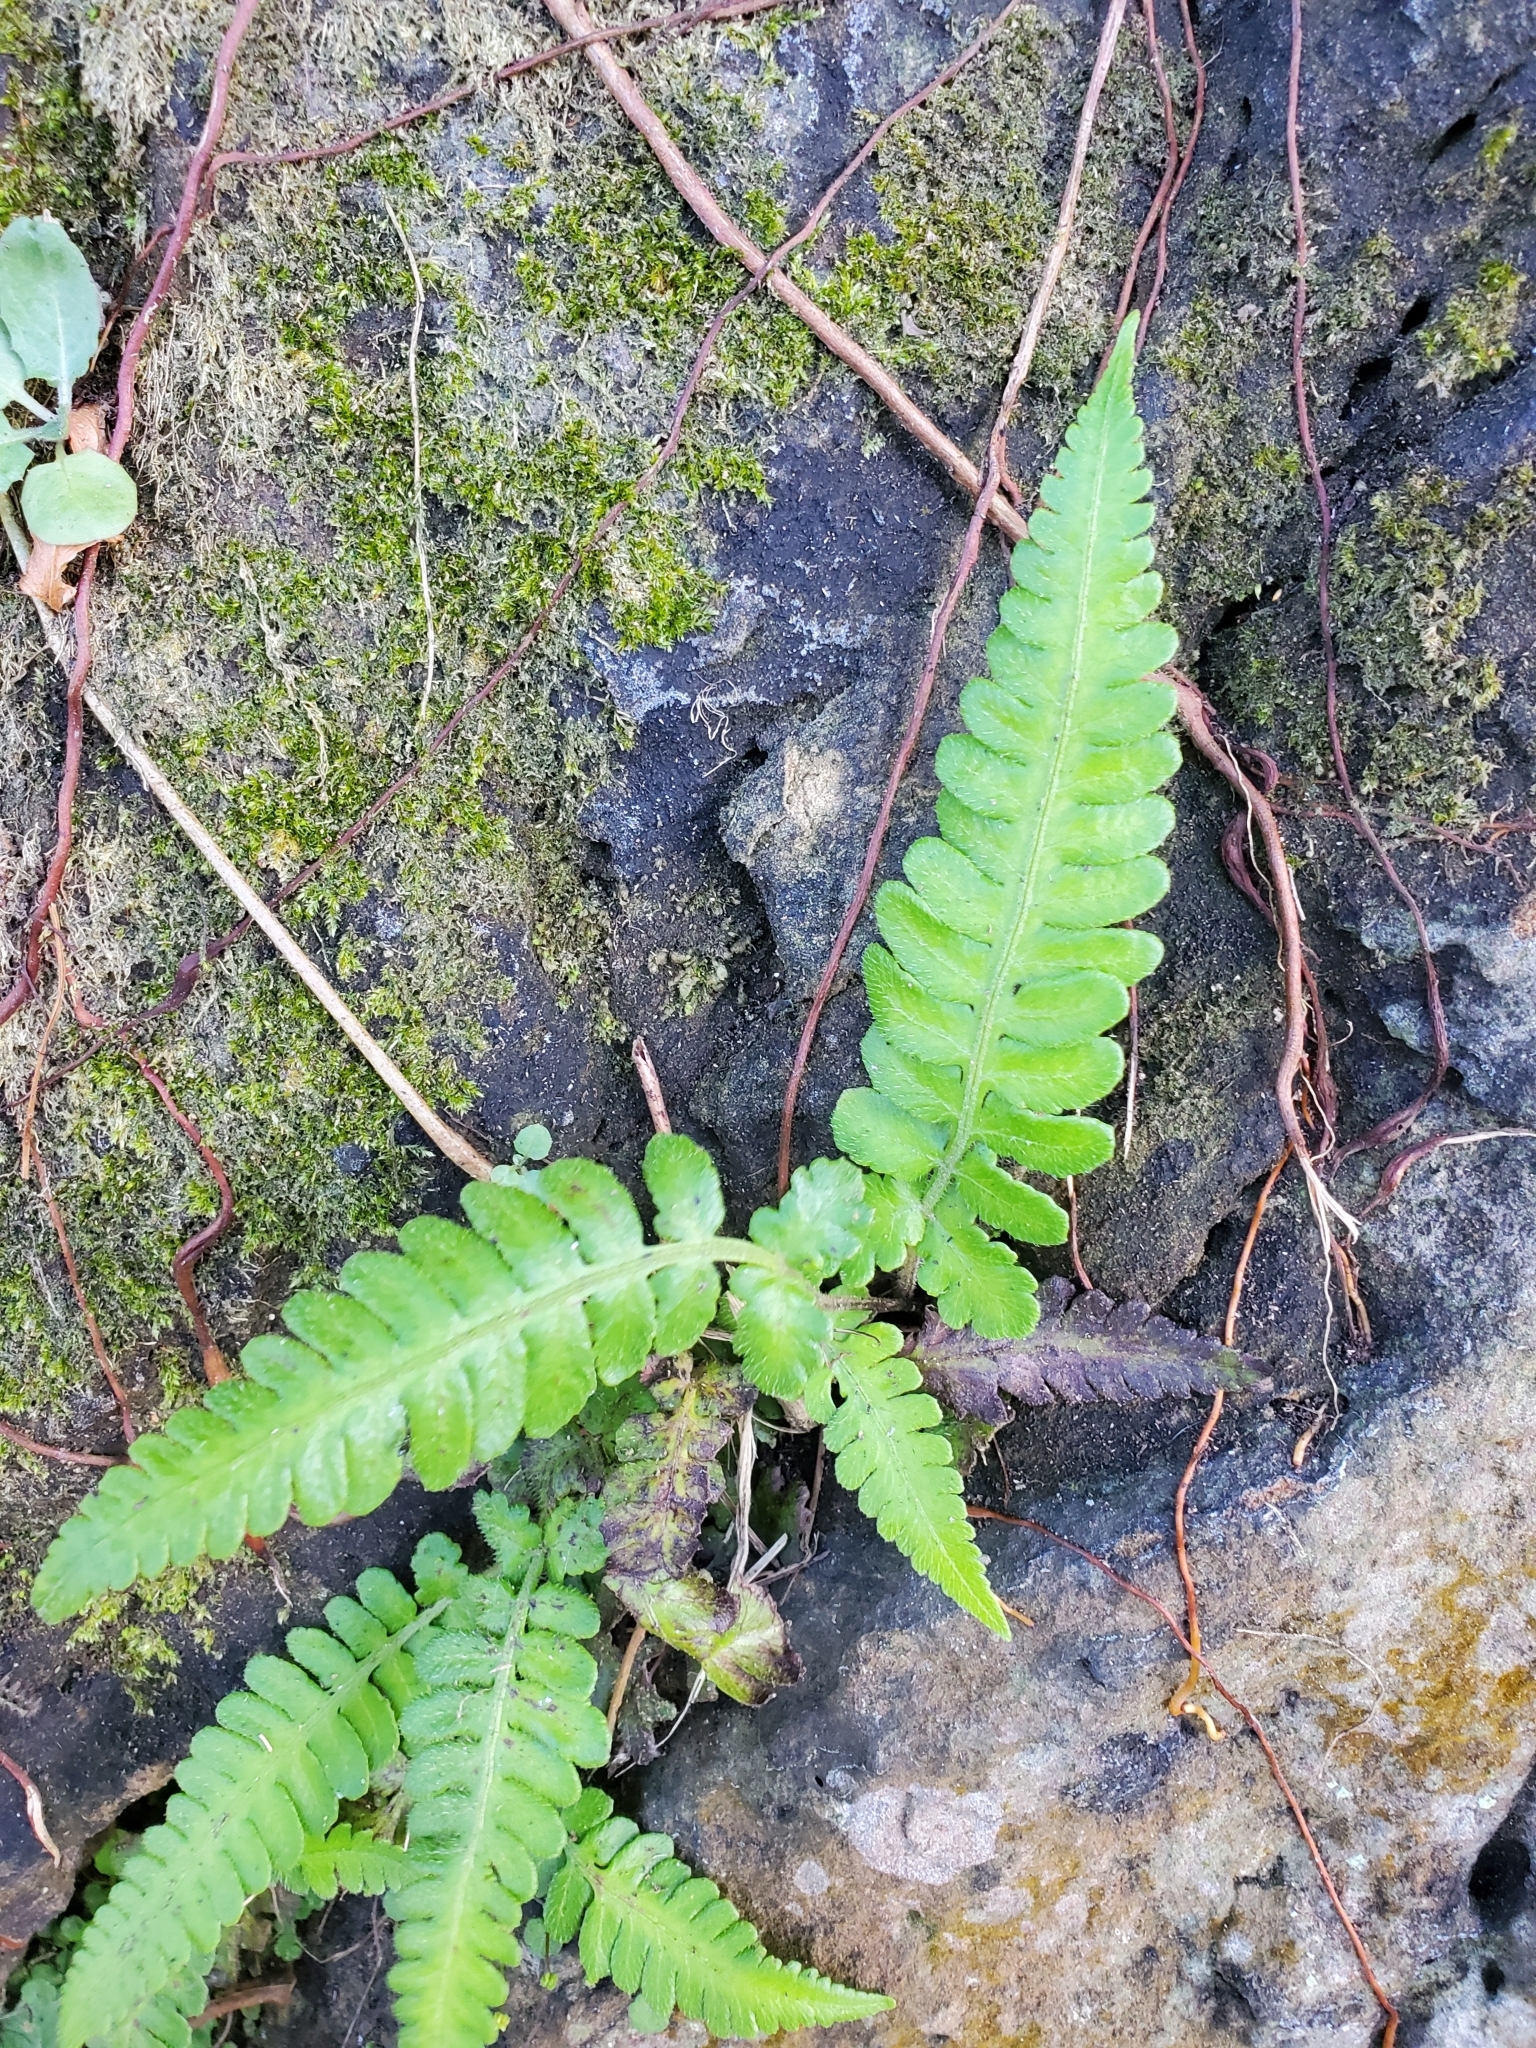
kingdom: Plantae
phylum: Tracheophyta
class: Polypodiopsida
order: Polypodiales
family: Athyriaceae
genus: Deparia
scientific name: Deparia petersenii
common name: Japanese false spleenwort
